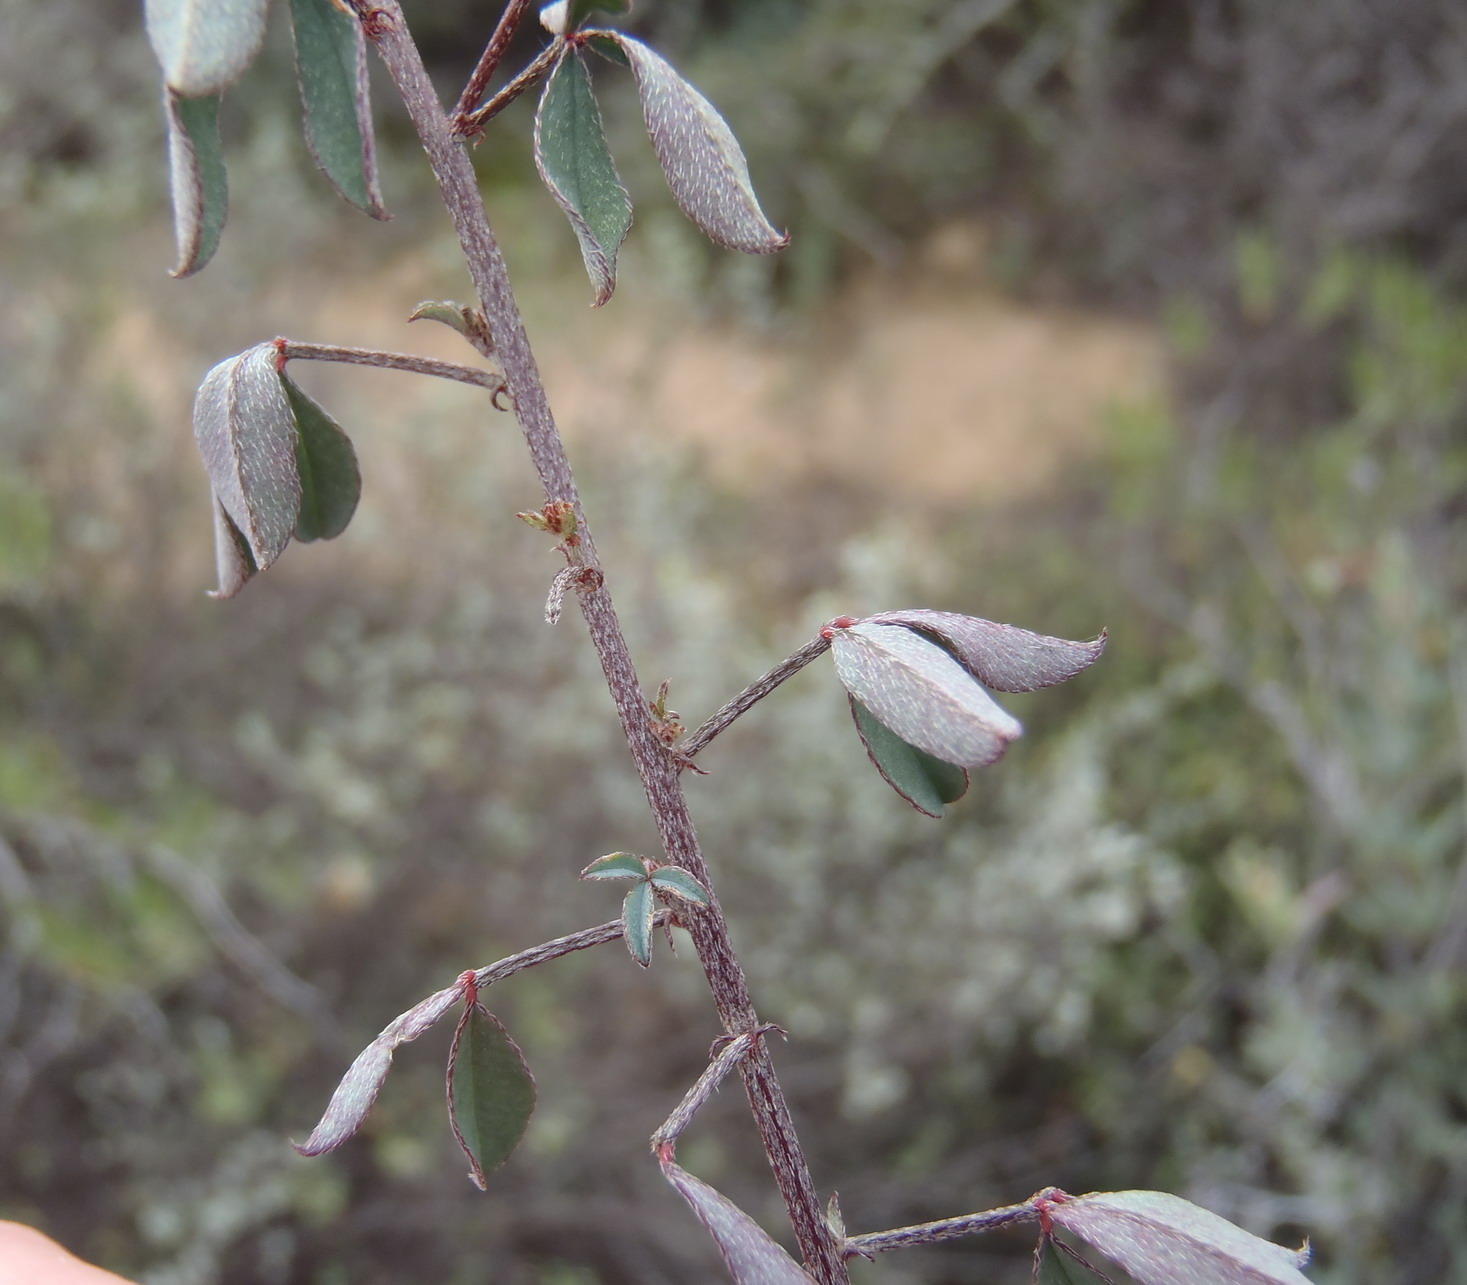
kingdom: Plantae
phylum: Tracheophyta
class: Magnoliopsida
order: Fabales
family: Fabaceae
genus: Indigofera
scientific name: Indigofera heterophylla
